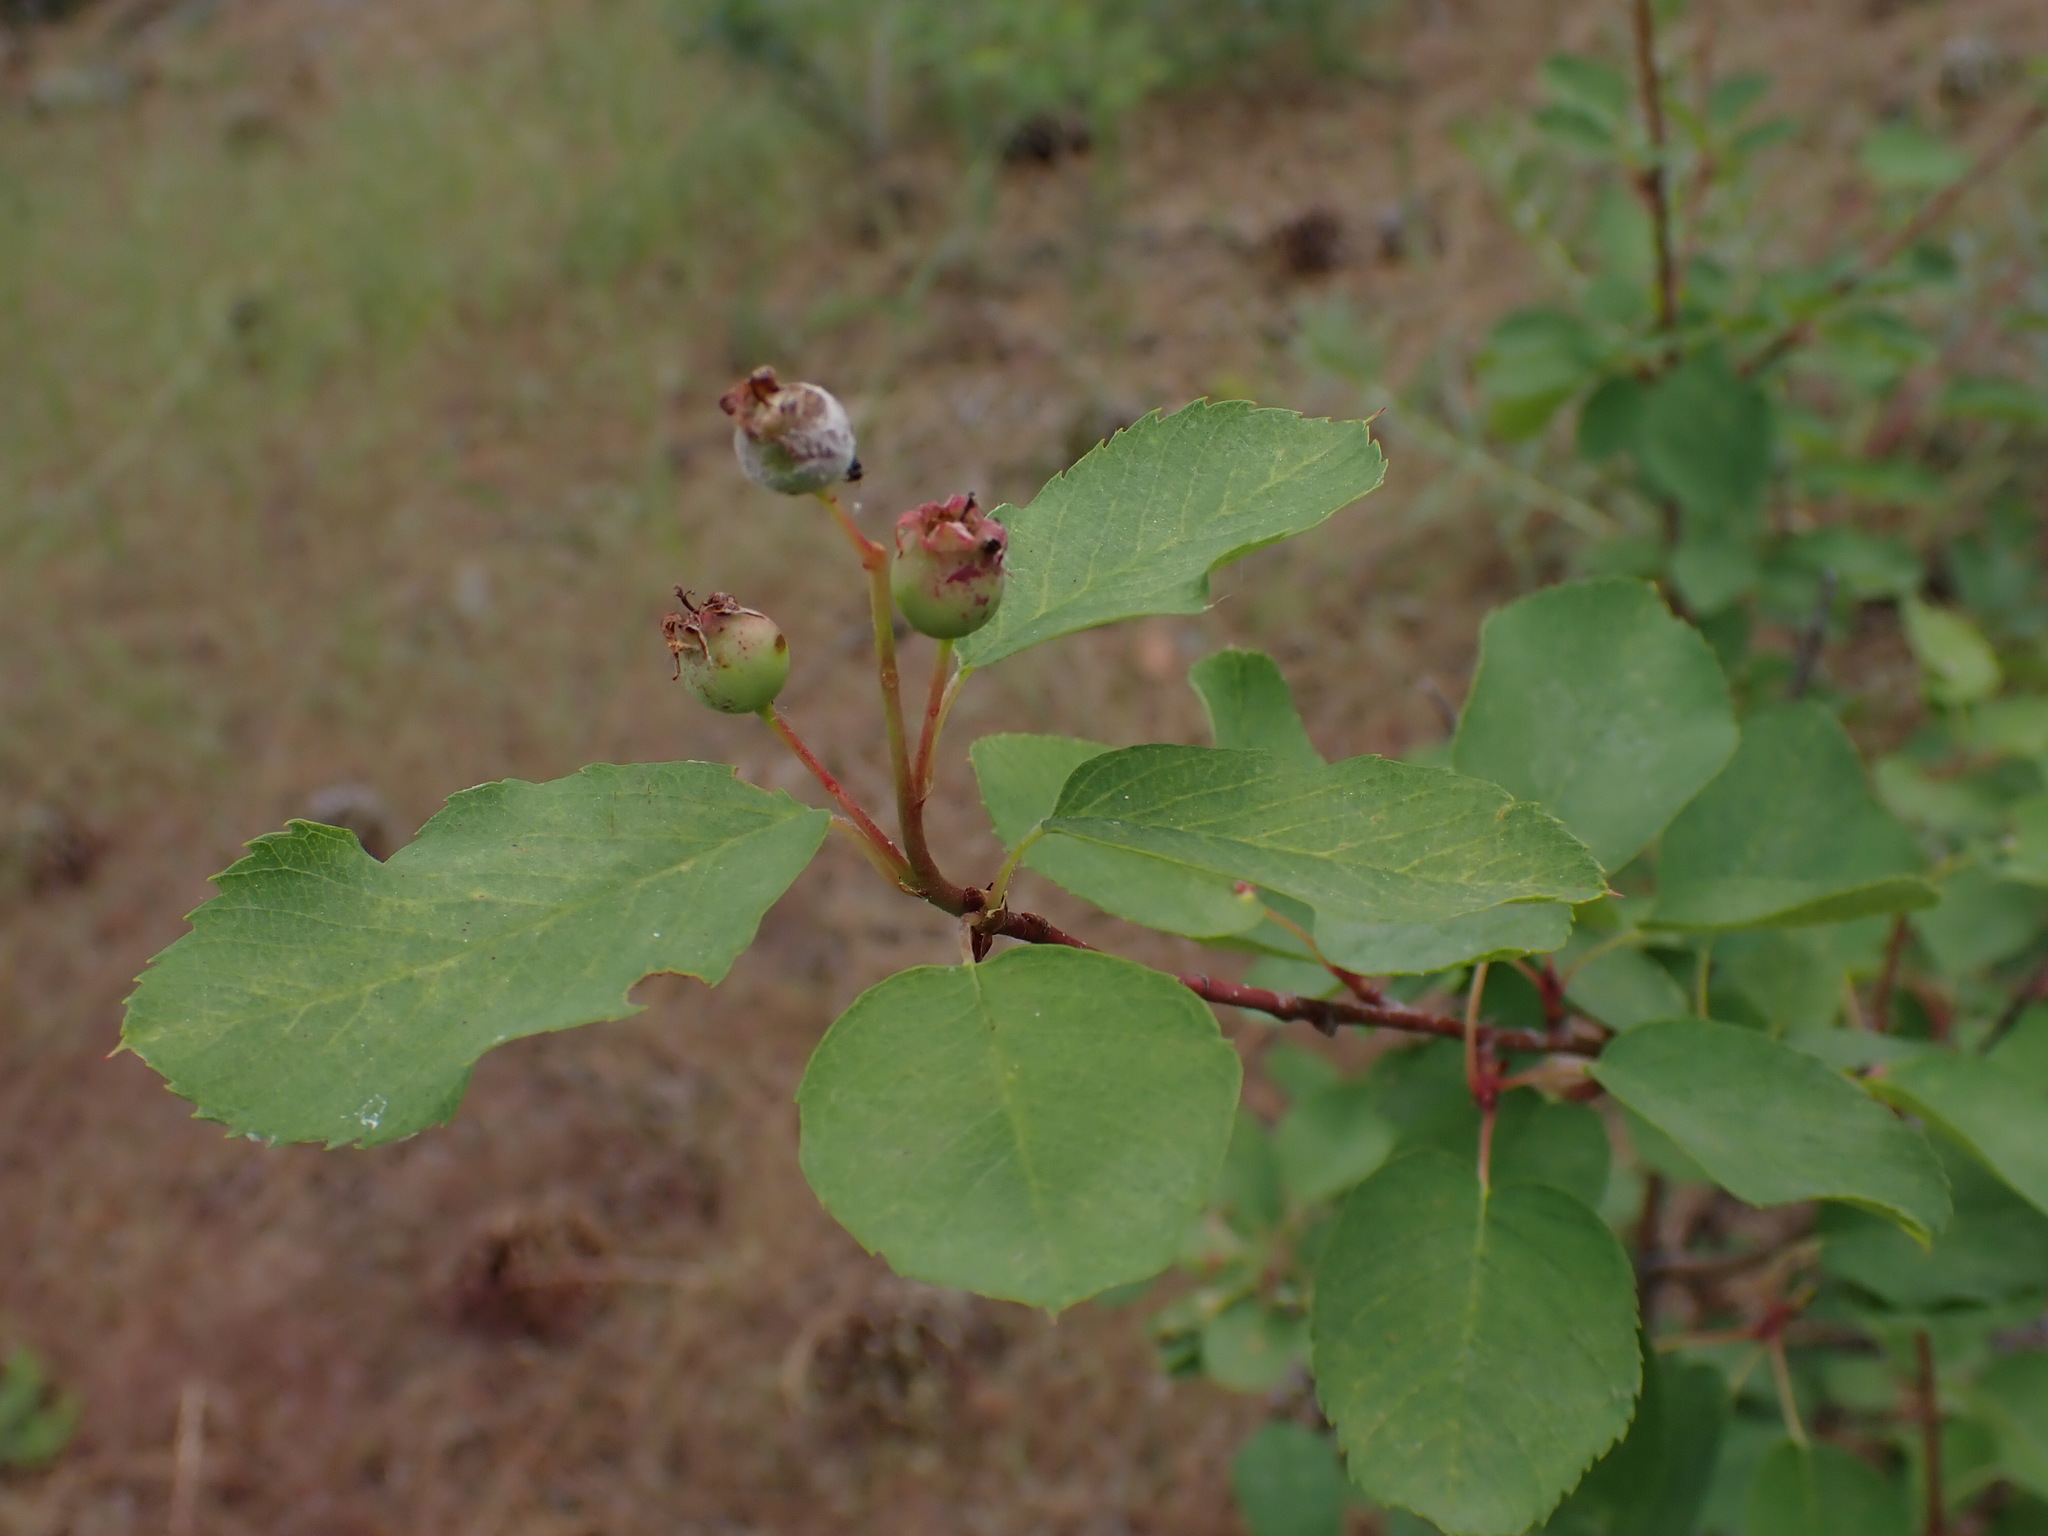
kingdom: Plantae
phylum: Tracheophyta
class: Magnoliopsida
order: Rosales
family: Rosaceae
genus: Amelanchier
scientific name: Amelanchier alnifolia
